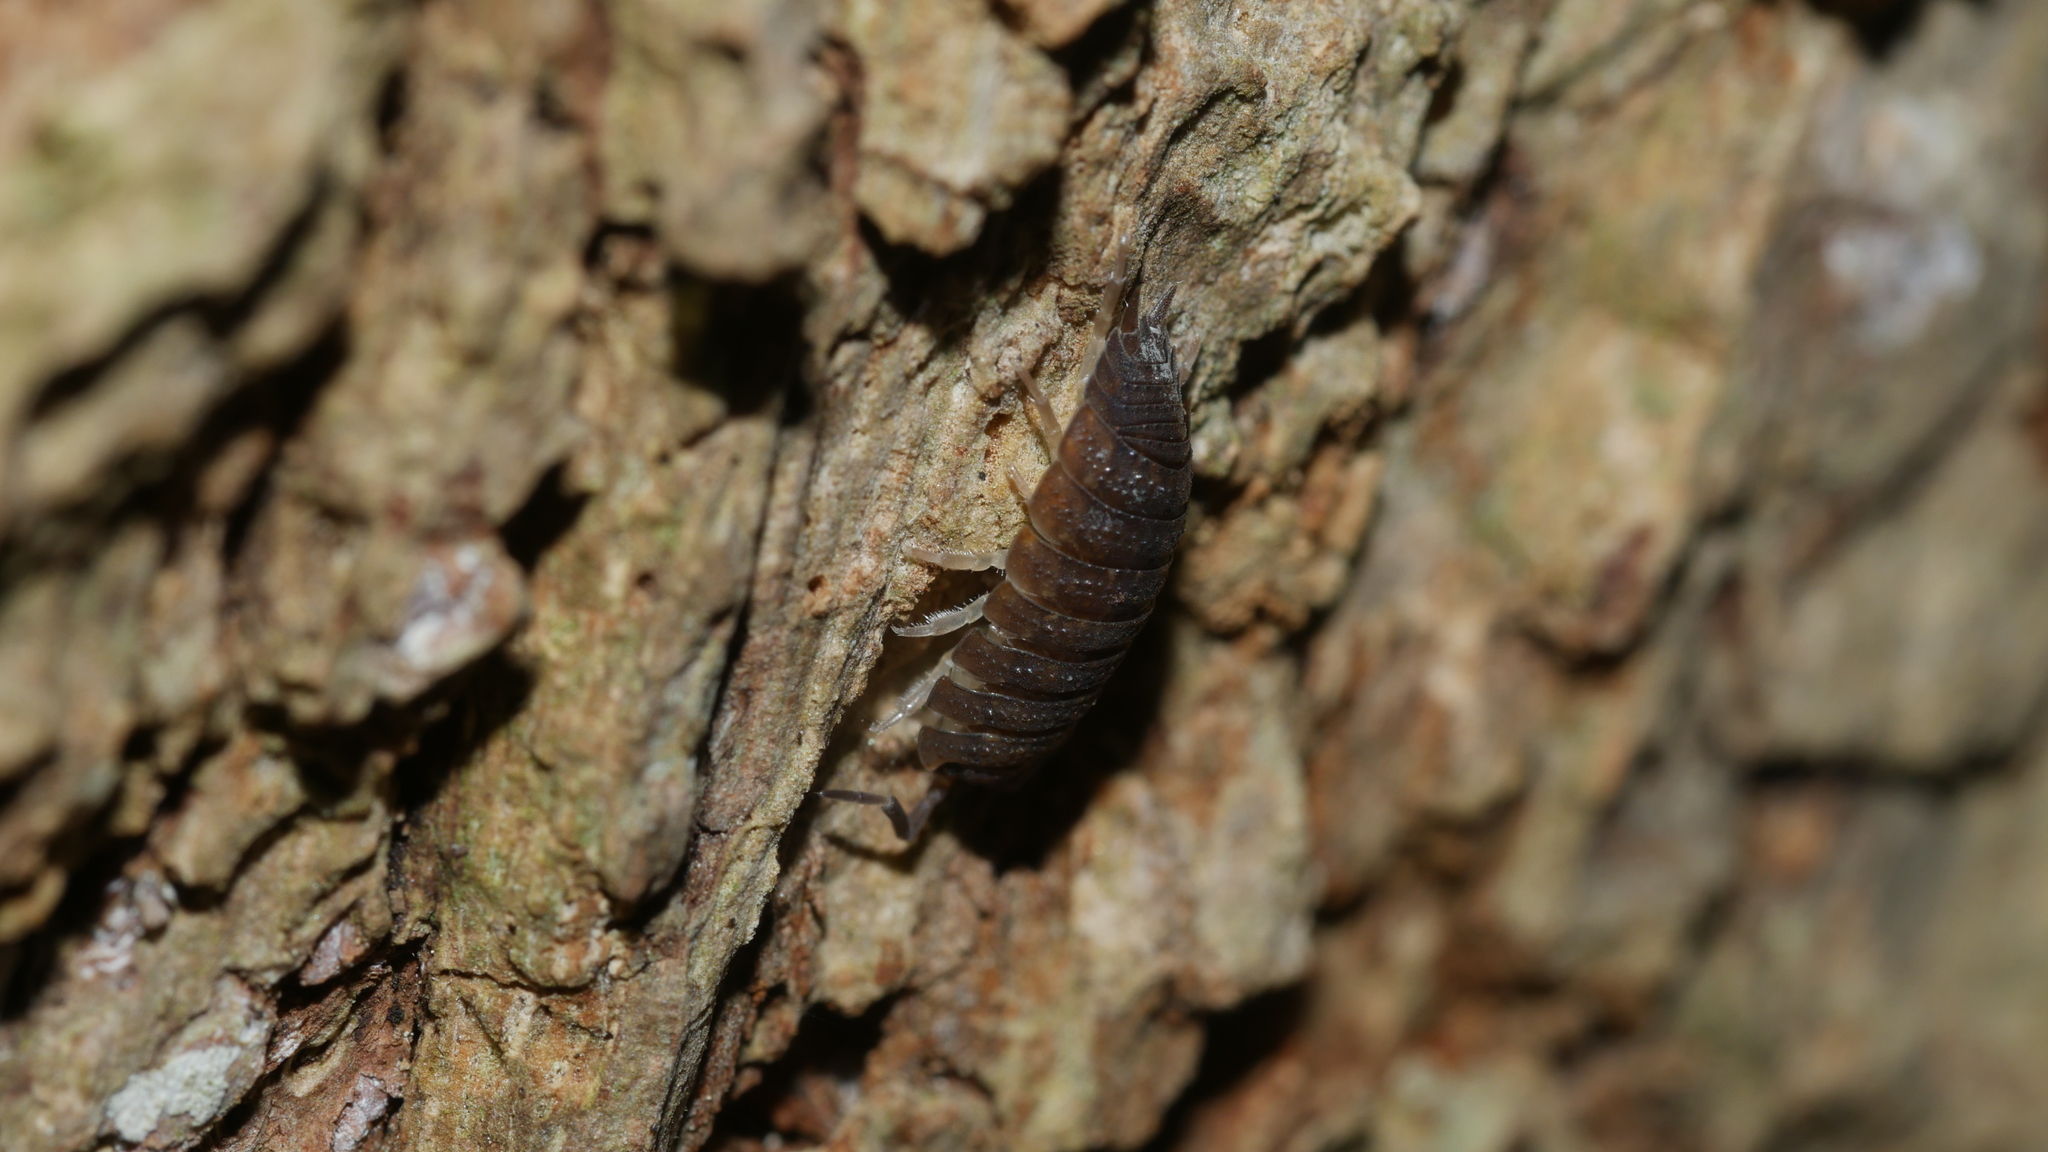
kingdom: Animalia
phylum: Arthropoda
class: Malacostraca
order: Isopoda
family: Porcellionidae
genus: Porcellio
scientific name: Porcellio scaber
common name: Common rough woodlouse
